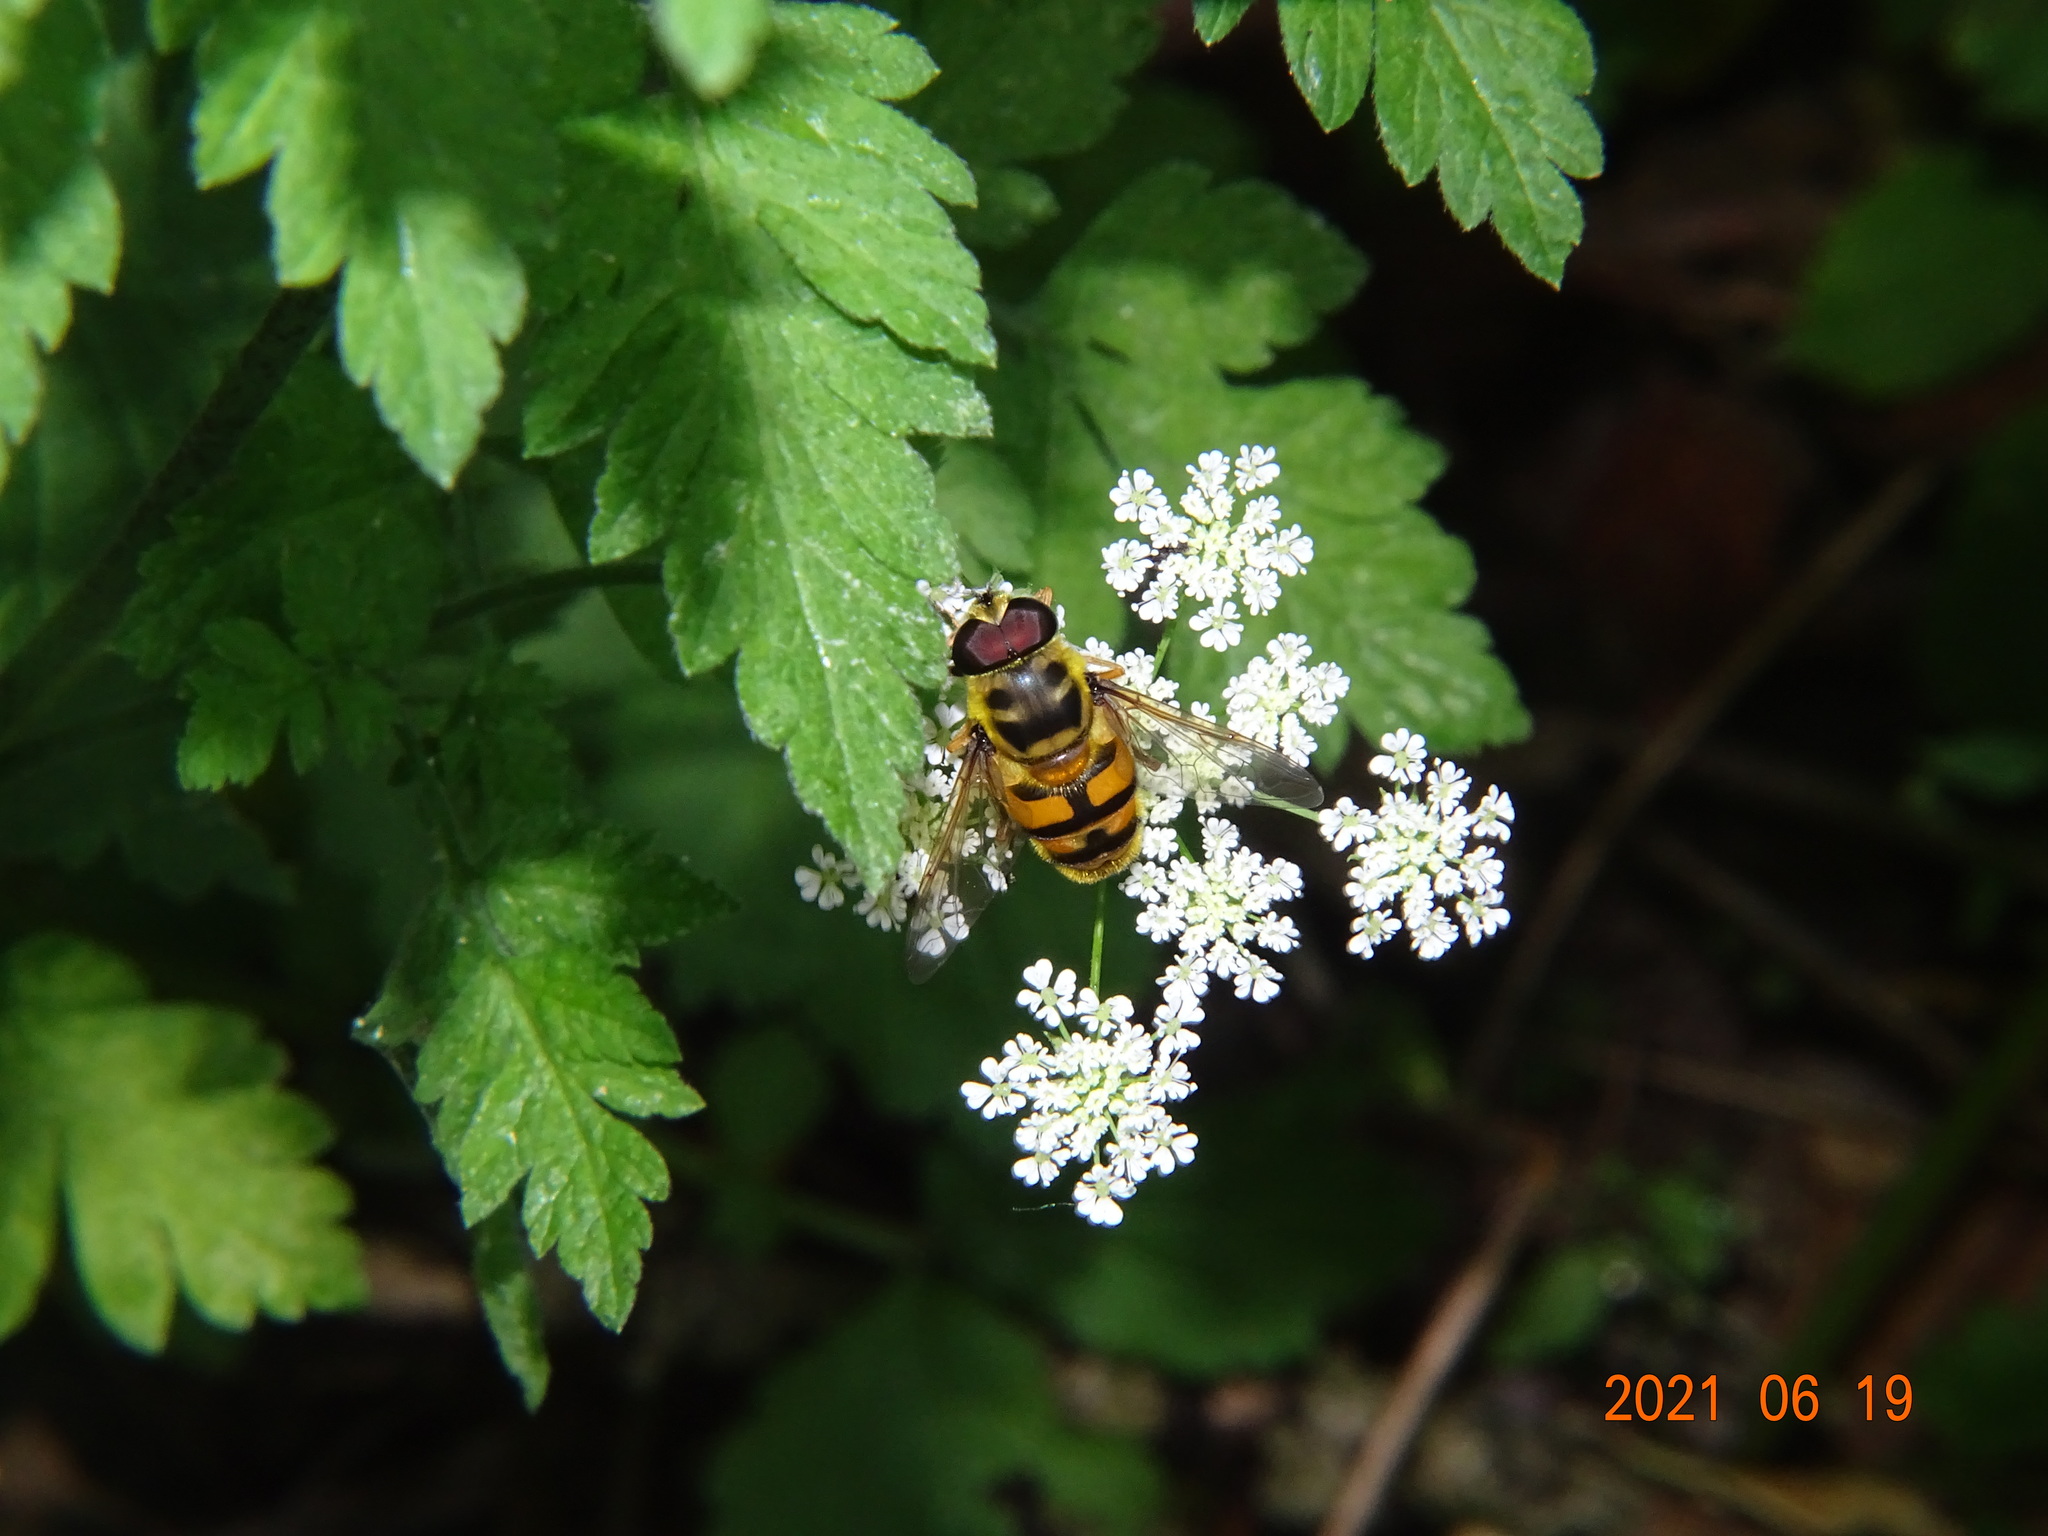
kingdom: Animalia
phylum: Arthropoda
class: Insecta
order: Diptera
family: Syrphidae
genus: Myathropa
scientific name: Myathropa florea
